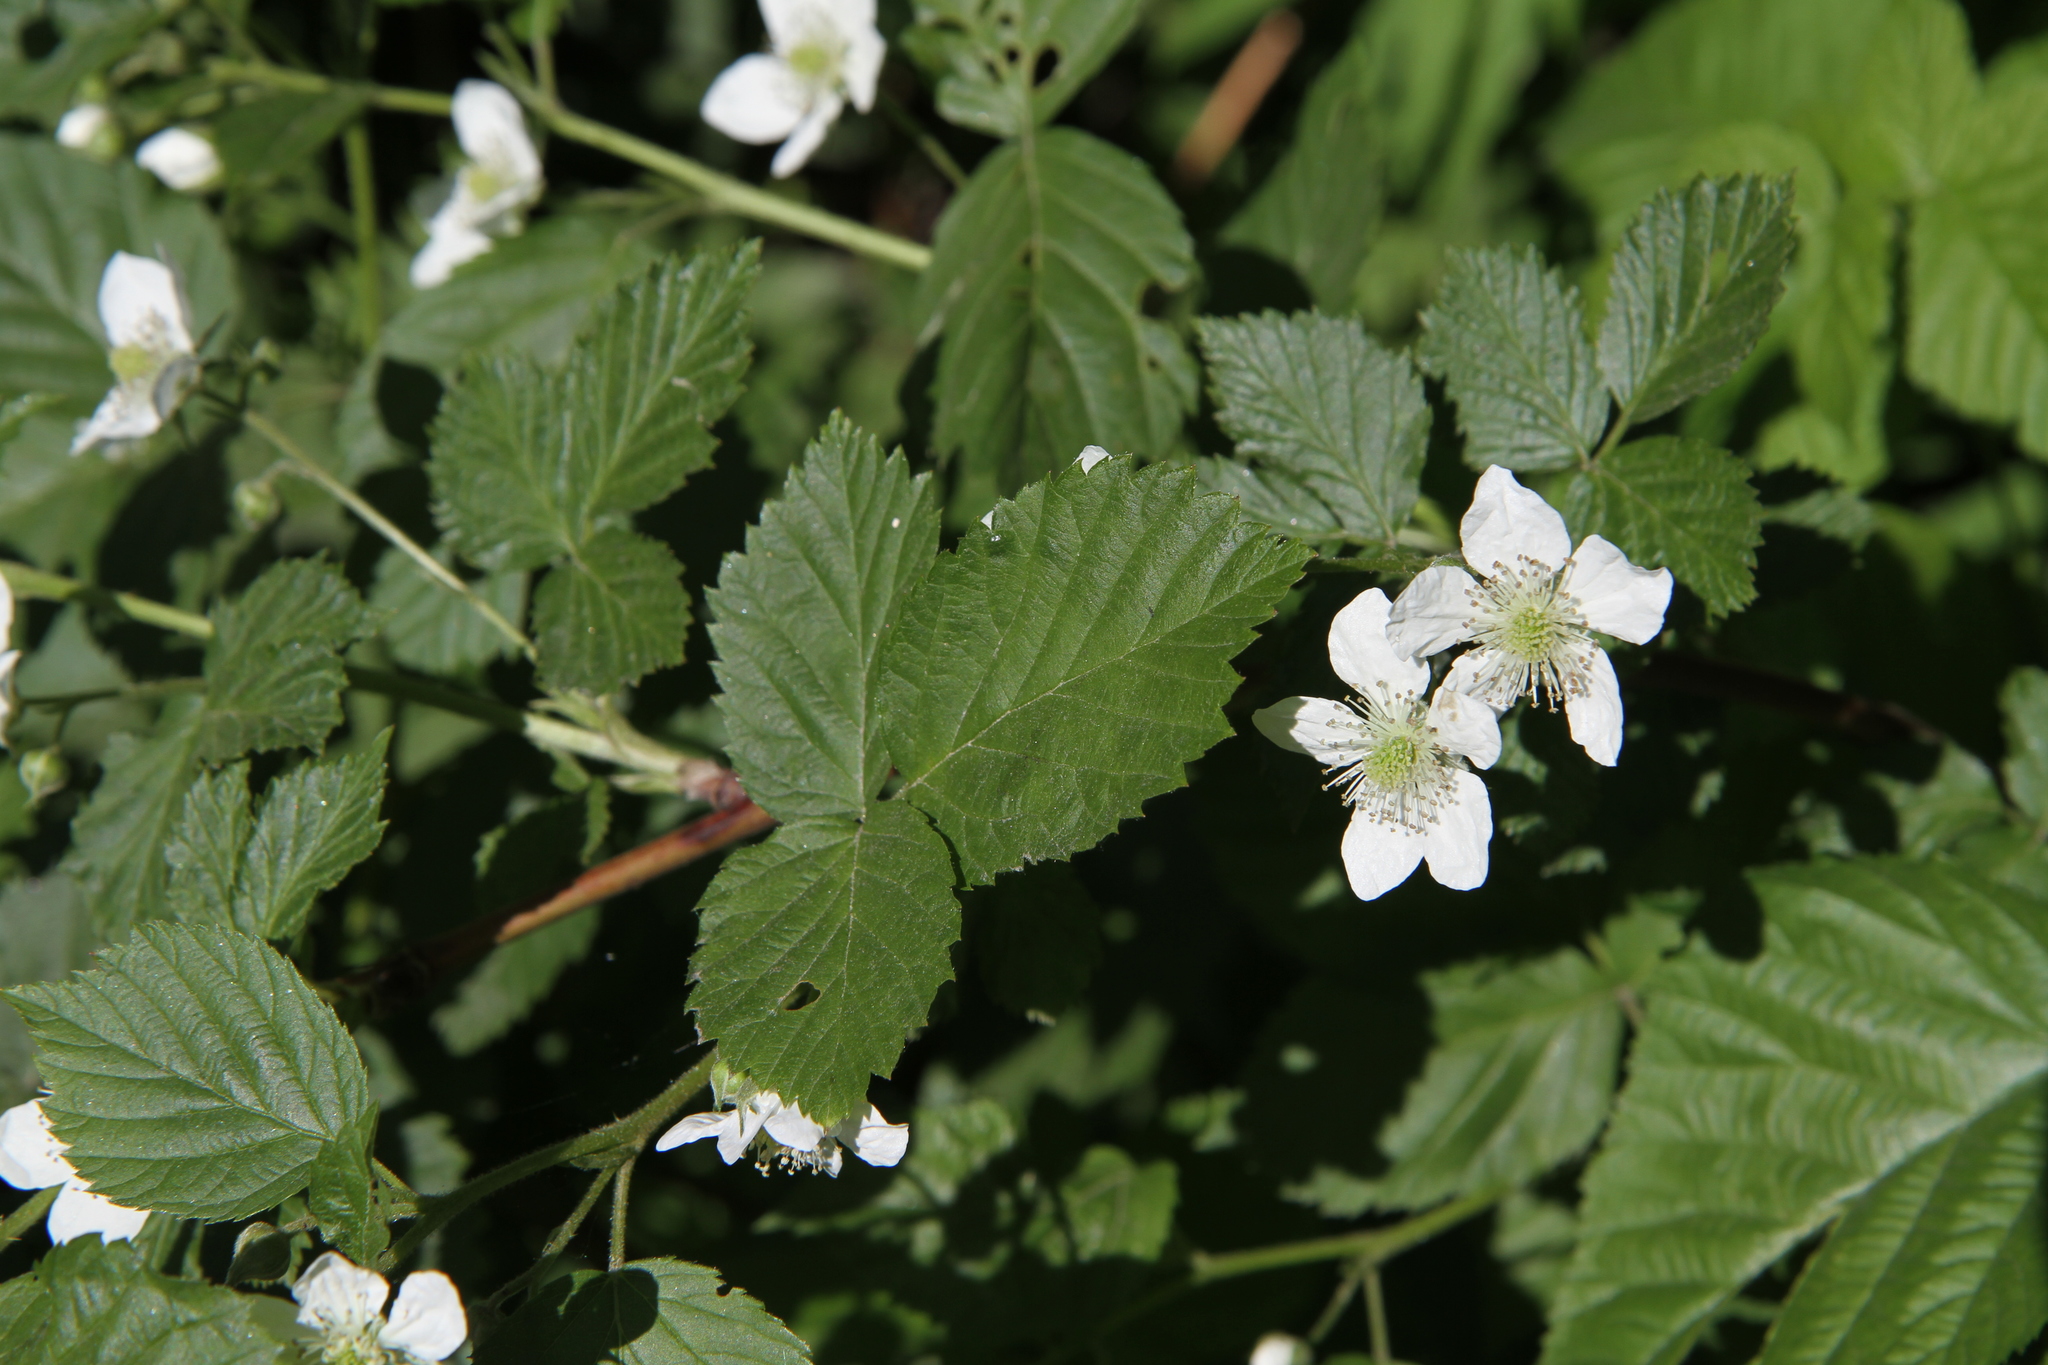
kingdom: Plantae
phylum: Tracheophyta
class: Magnoliopsida
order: Rosales
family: Rosaceae
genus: Rubus
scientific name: Rubus polonicus
